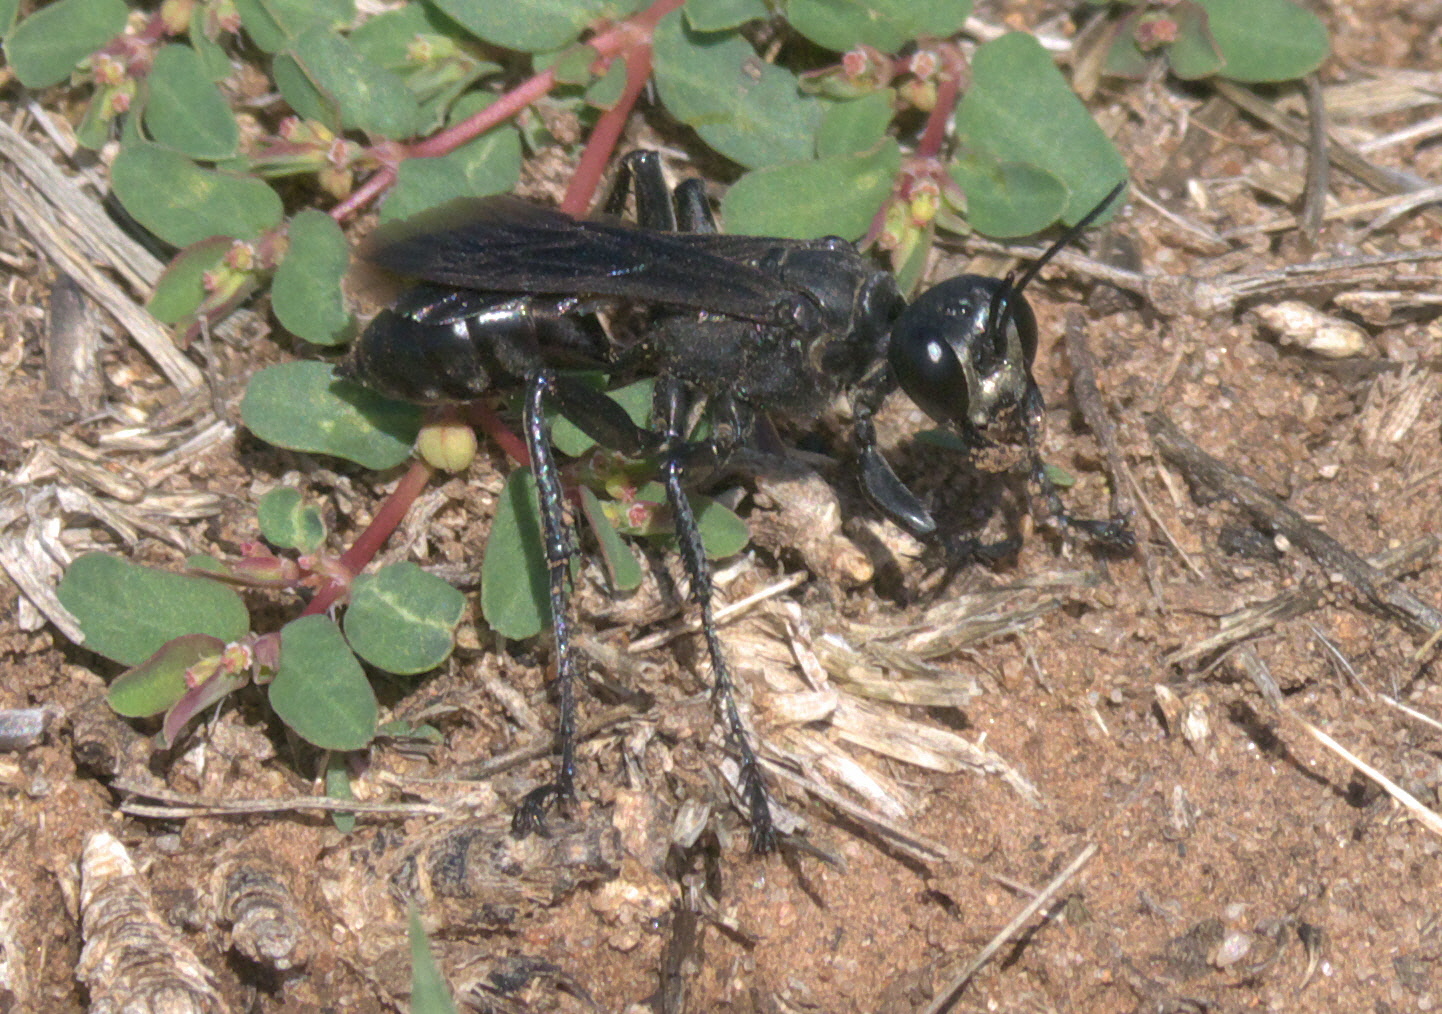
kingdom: Animalia
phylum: Arthropoda
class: Insecta
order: Hymenoptera
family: Sphecidae
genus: Prionyx
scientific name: Prionyx atratus
